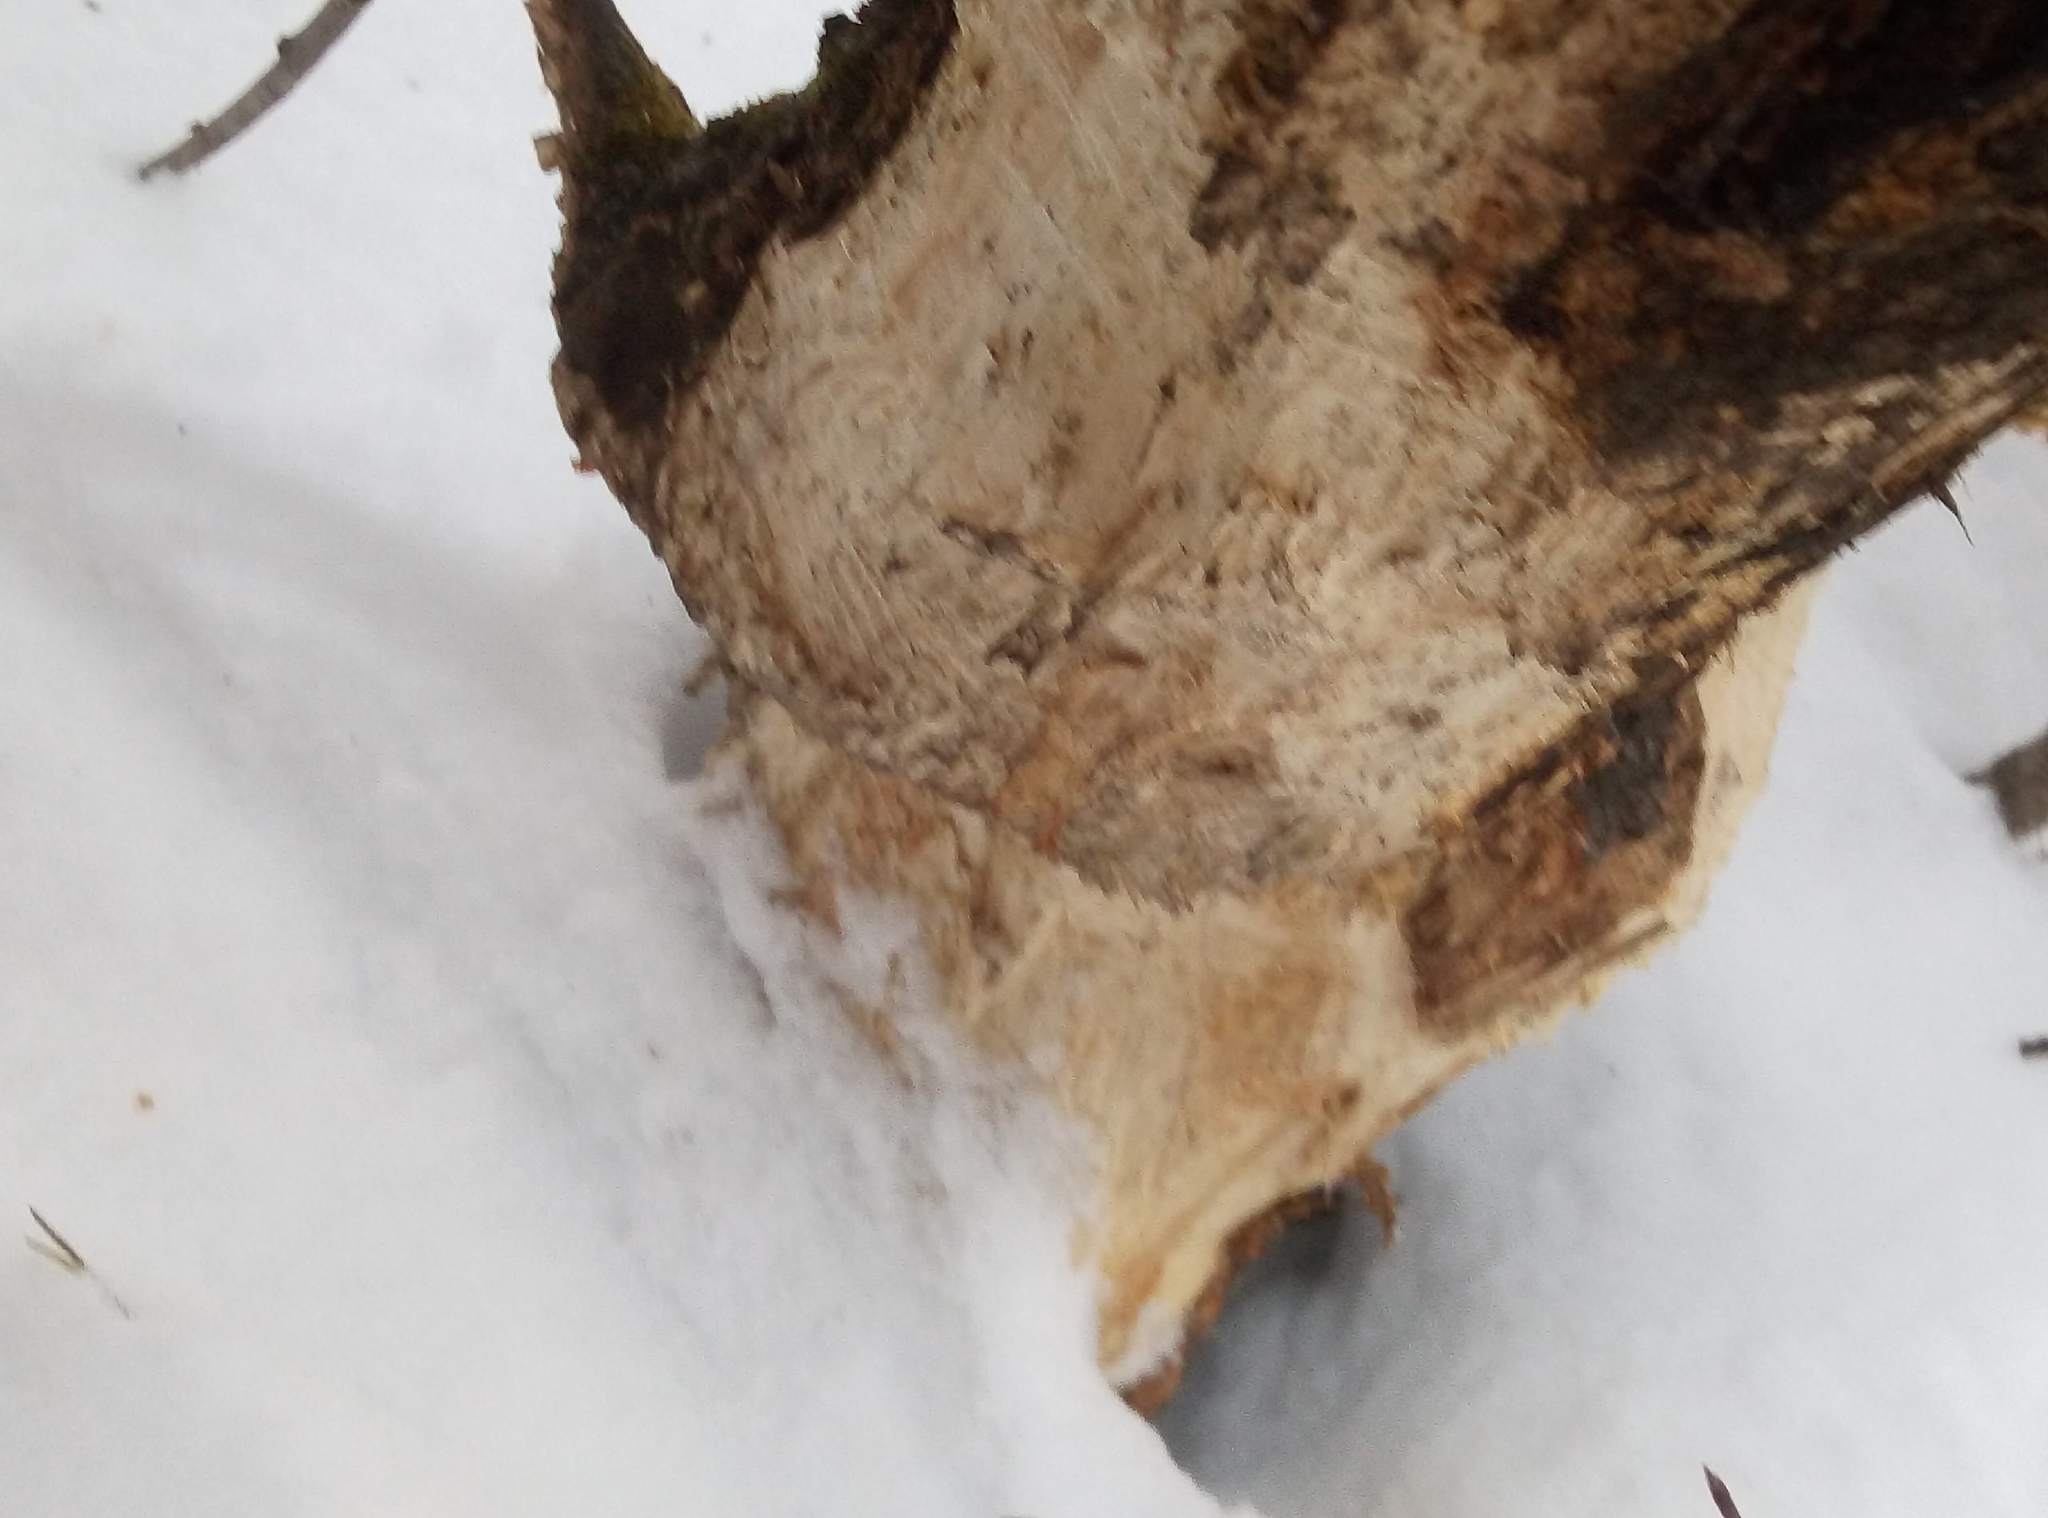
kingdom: Animalia
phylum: Chordata
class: Mammalia
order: Rodentia
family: Castoridae
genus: Castor
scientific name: Castor fiber
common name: Eurasian beaver
